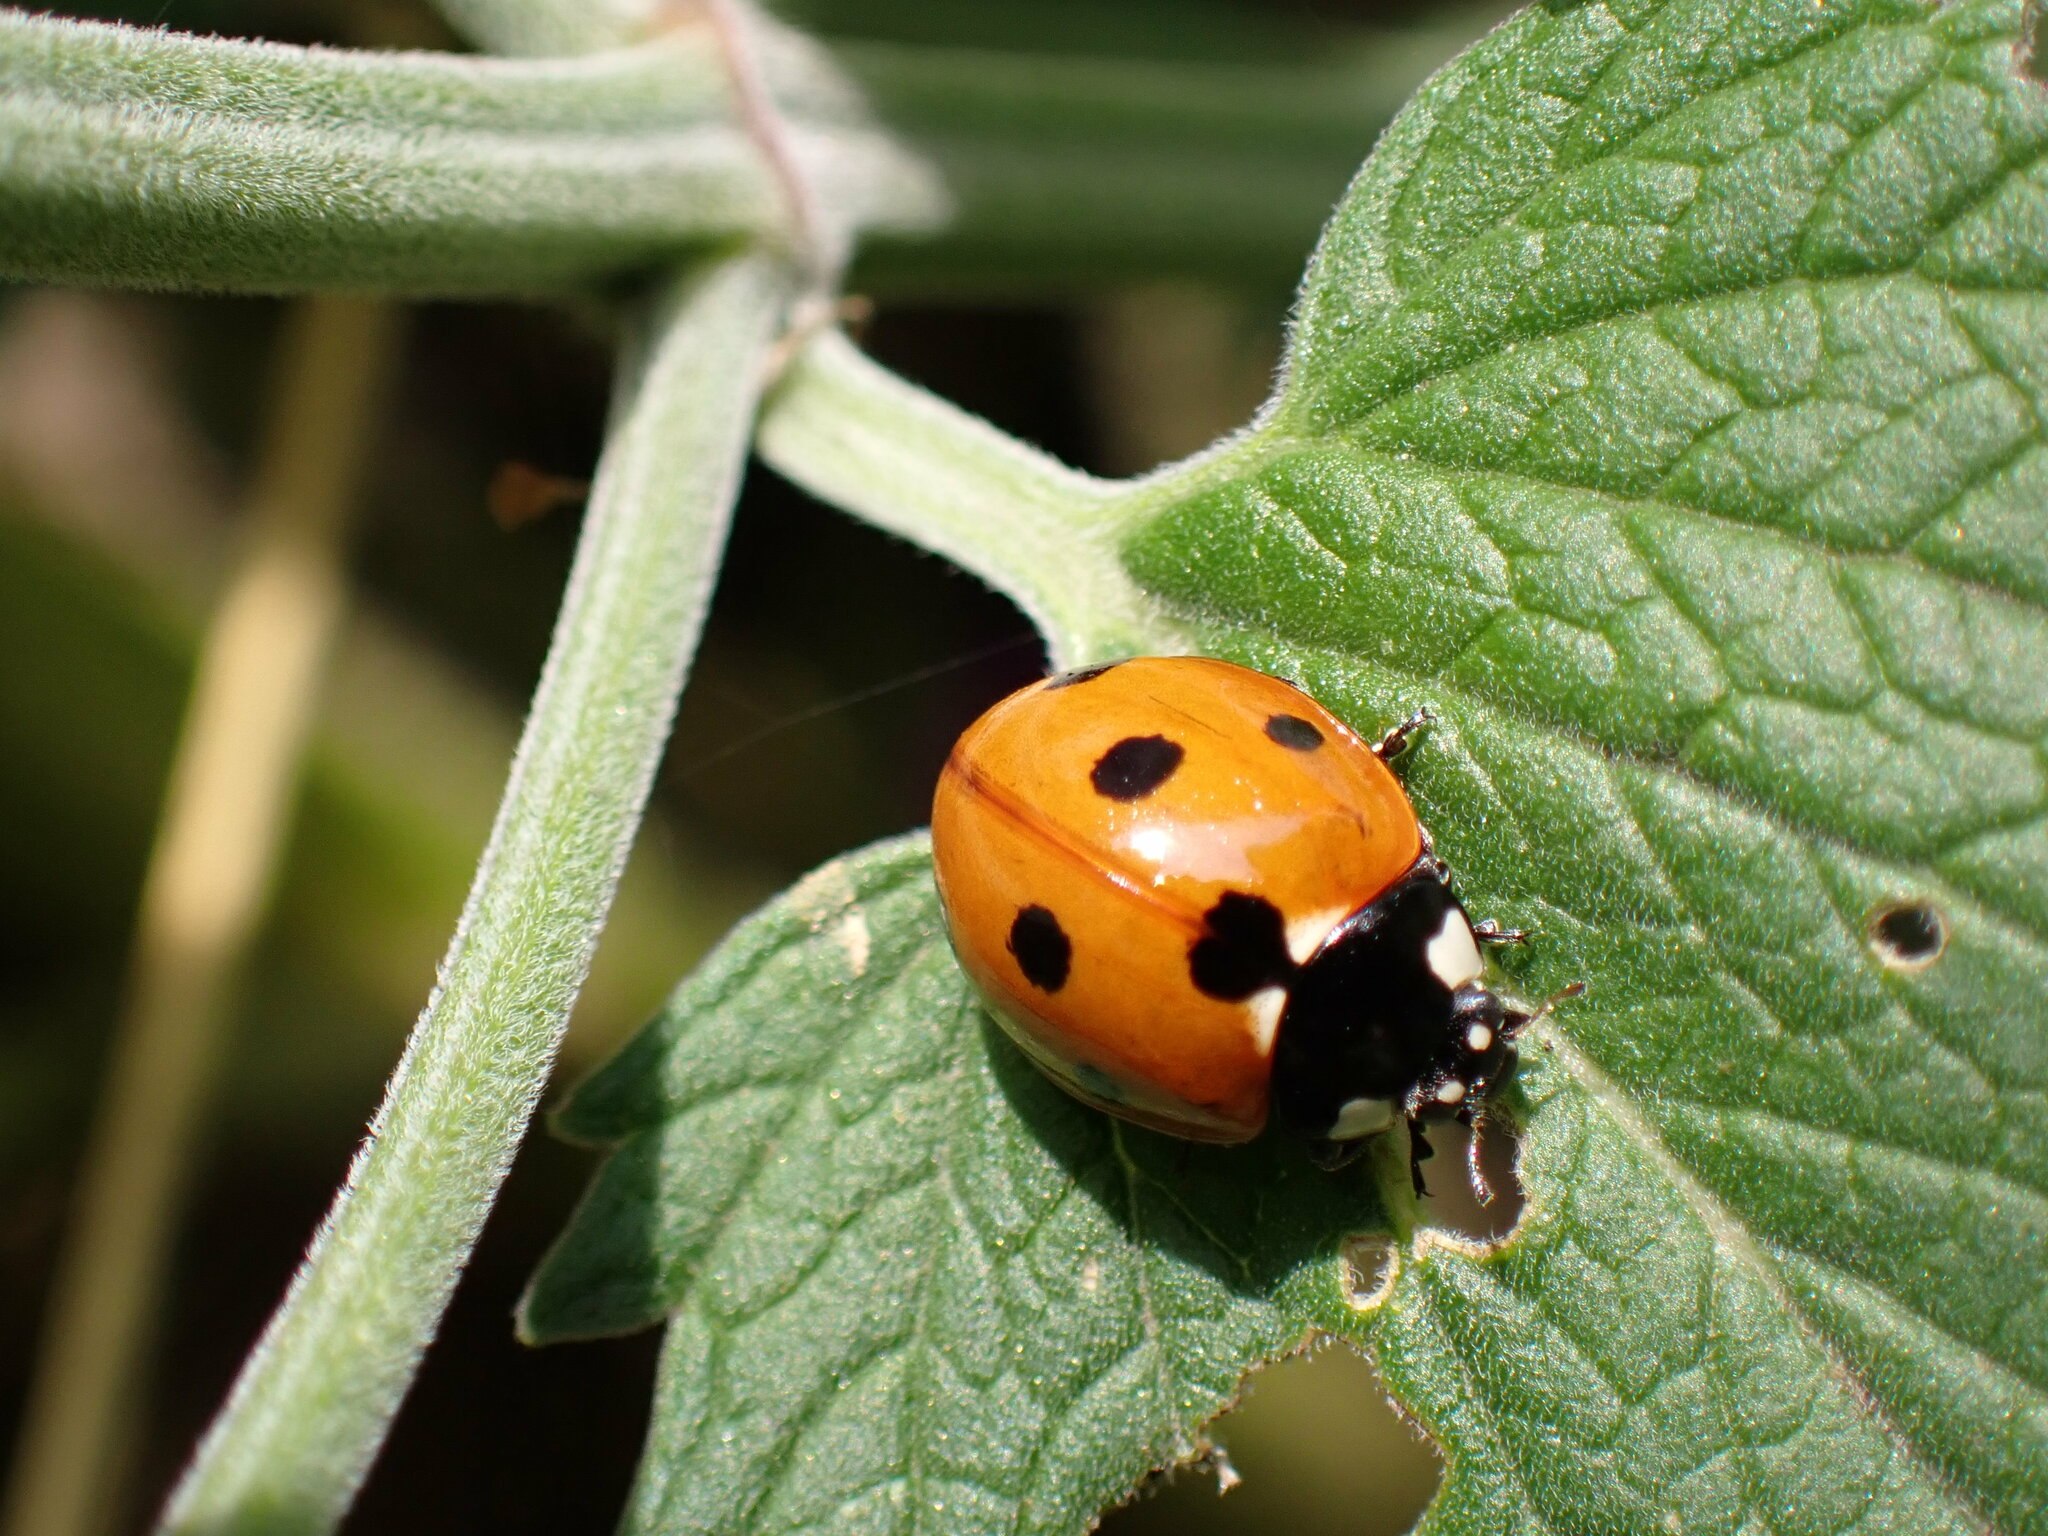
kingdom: Animalia
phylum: Arthropoda
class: Insecta
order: Coleoptera
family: Coccinellidae
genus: Coccinella
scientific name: Coccinella septempunctata
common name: Sevenspotted lady beetle
